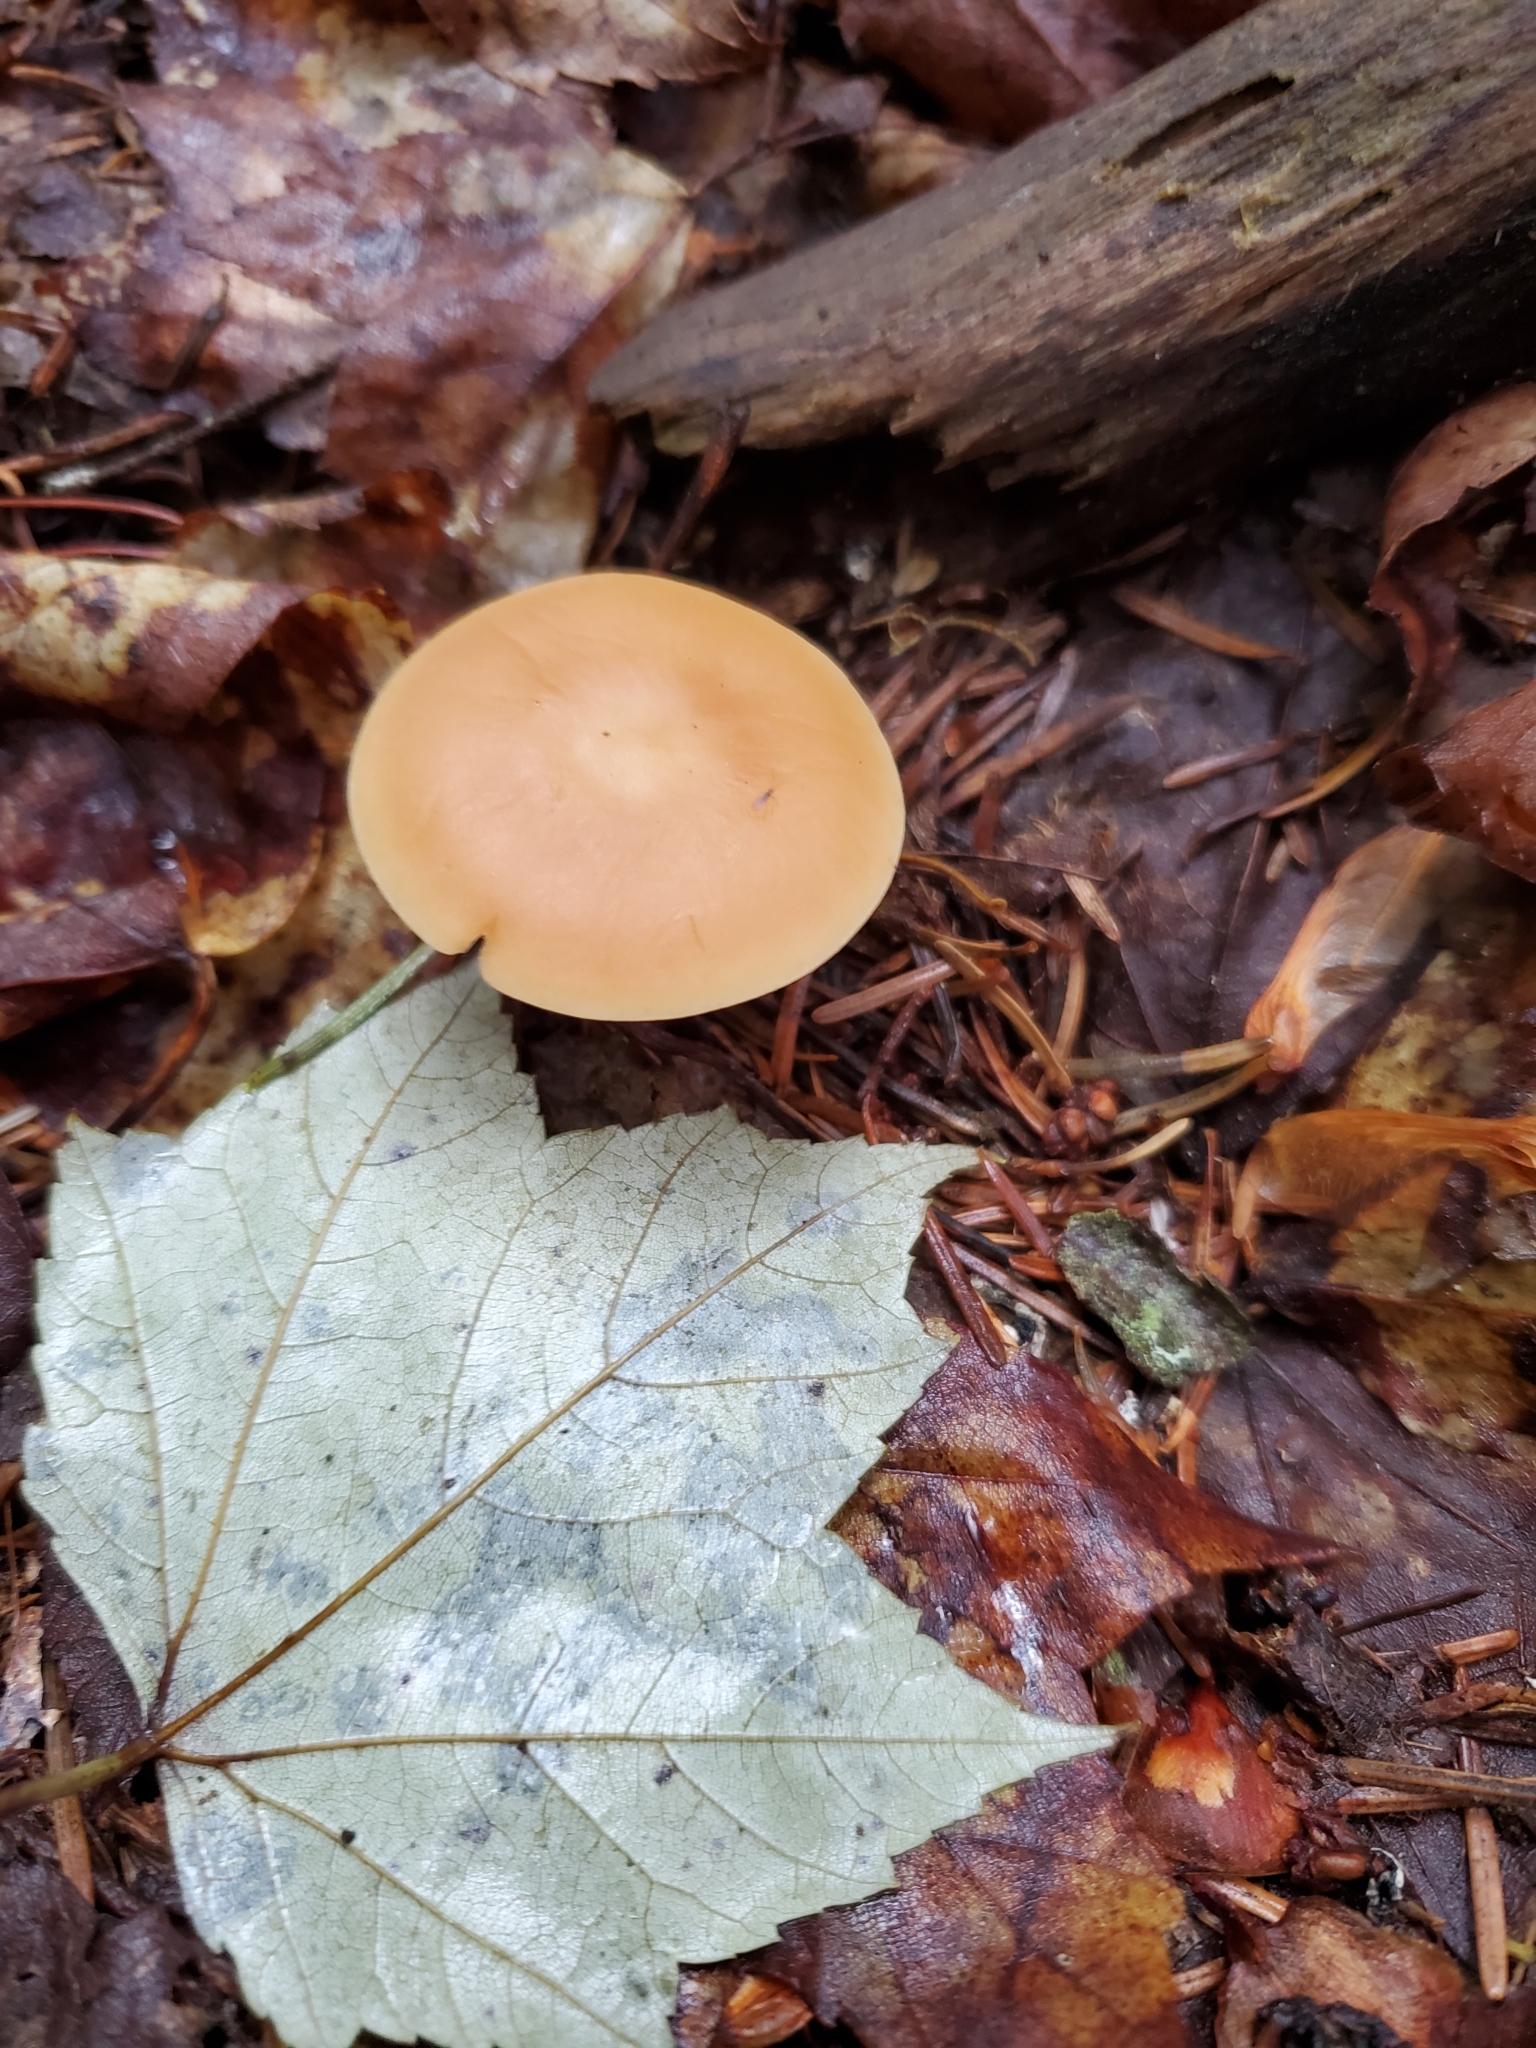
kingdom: Fungi
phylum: Basidiomycota
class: Agaricomycetes
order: Agaricales
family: Omphalotaceae
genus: Gymnopus
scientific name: Gymnopus dryophilus
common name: Penny top
